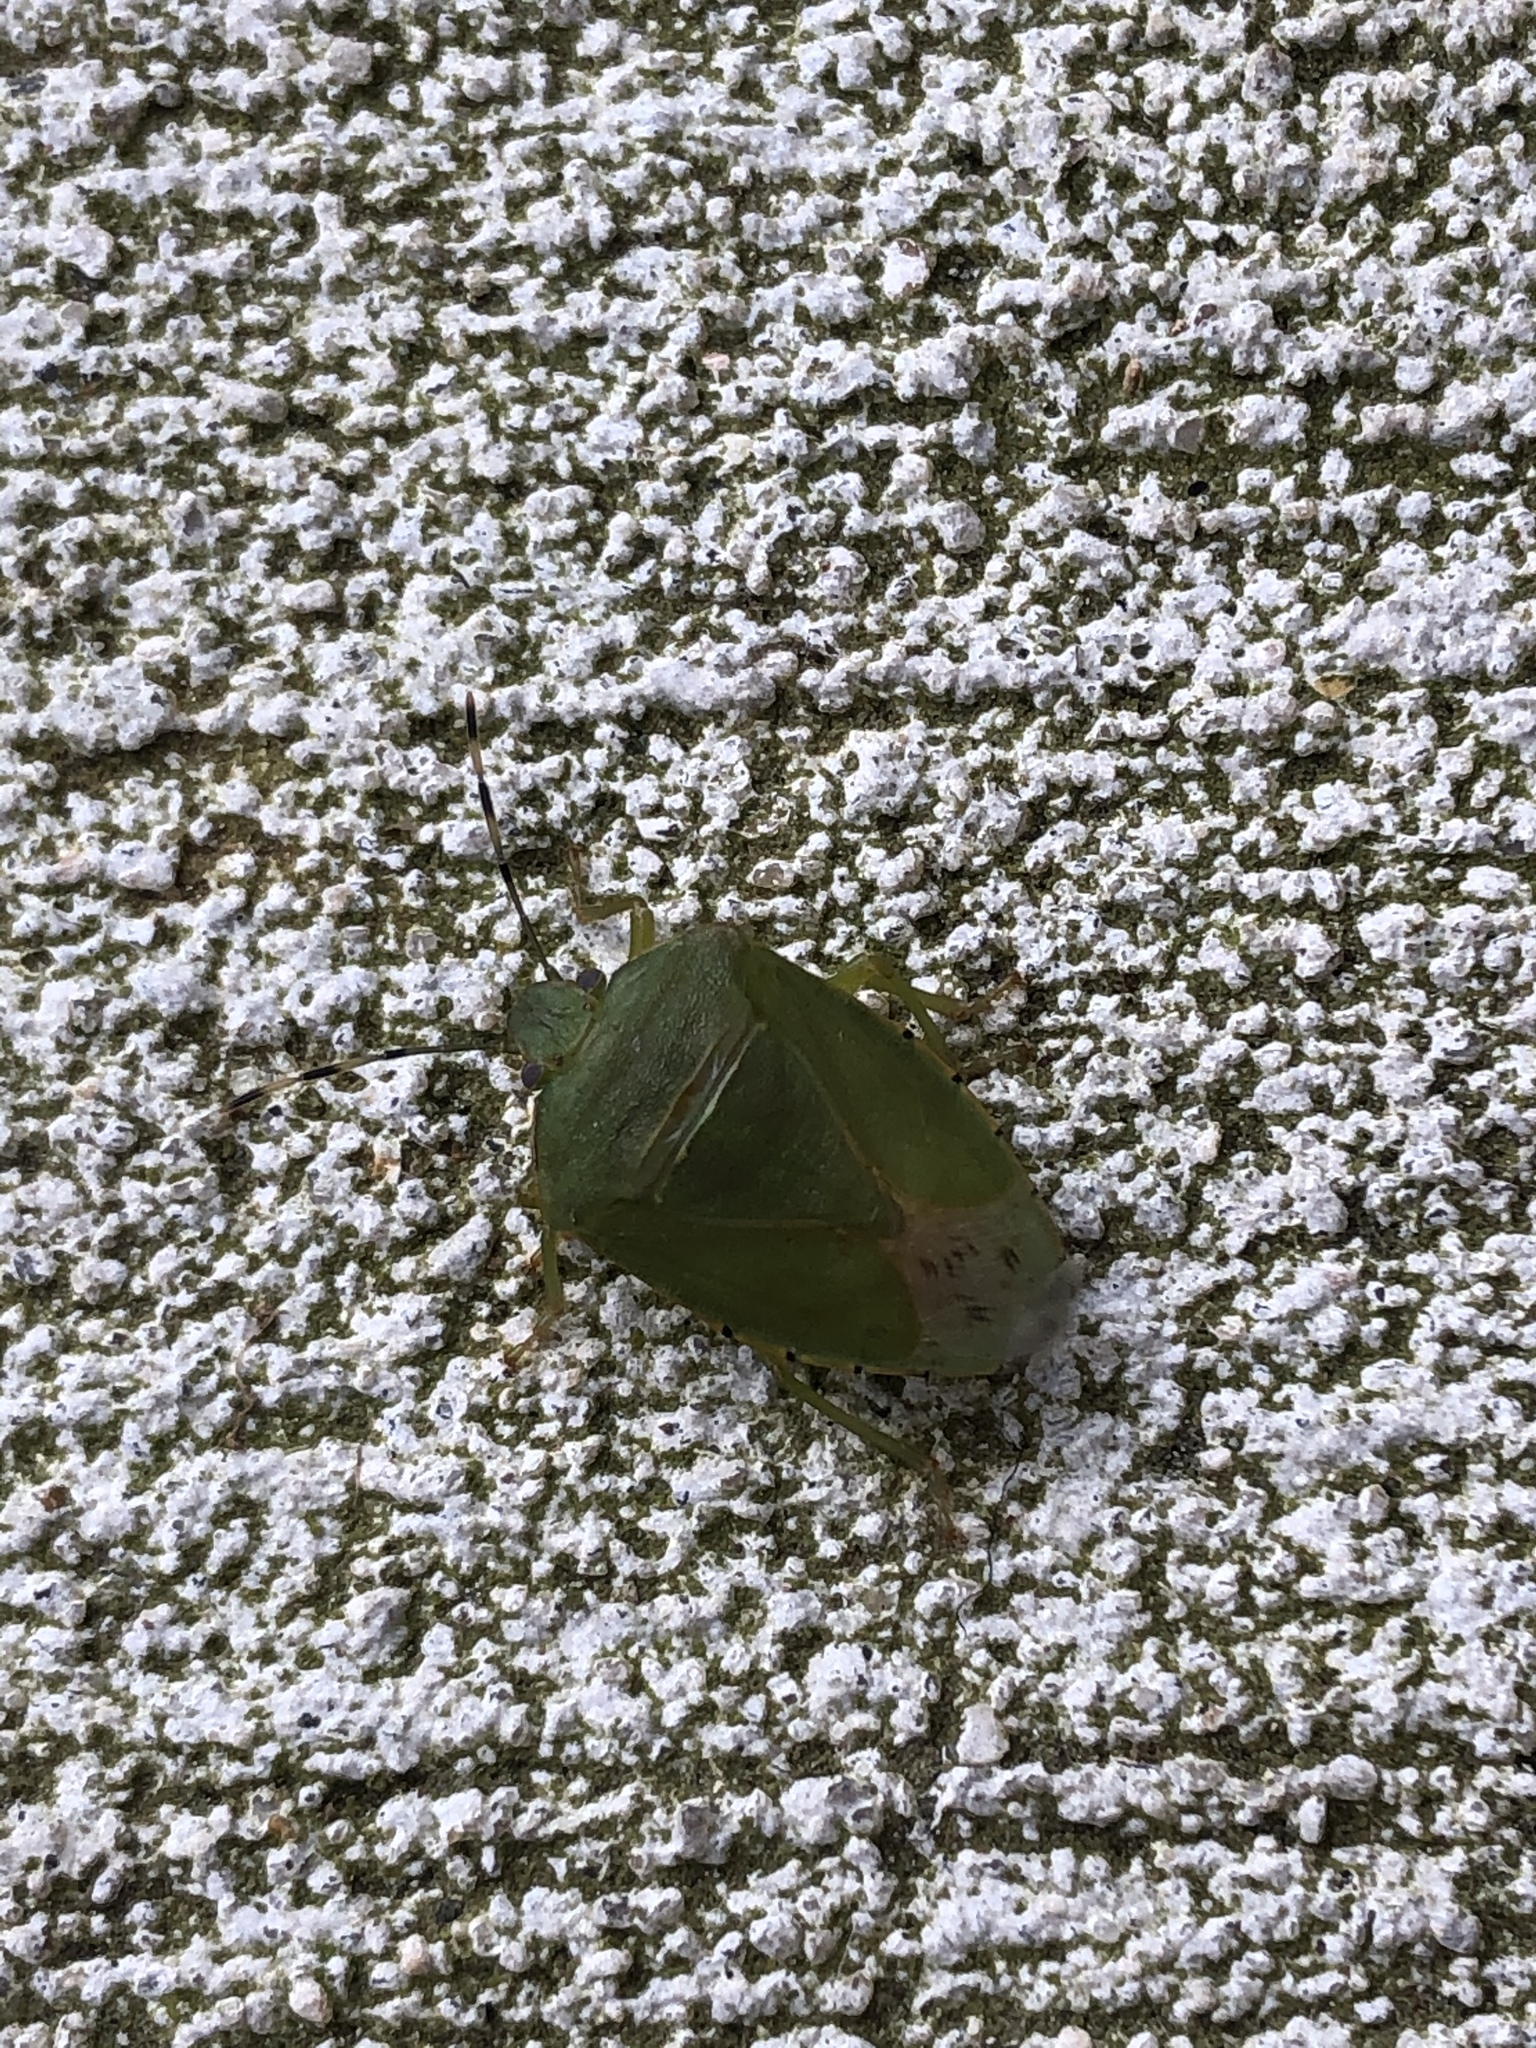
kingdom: Animalia
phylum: Arthropoda
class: Insecta
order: Hemiptera
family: Pentatomidae
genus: Chinavia
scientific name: Chinavia hilaris
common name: Green stink bug
